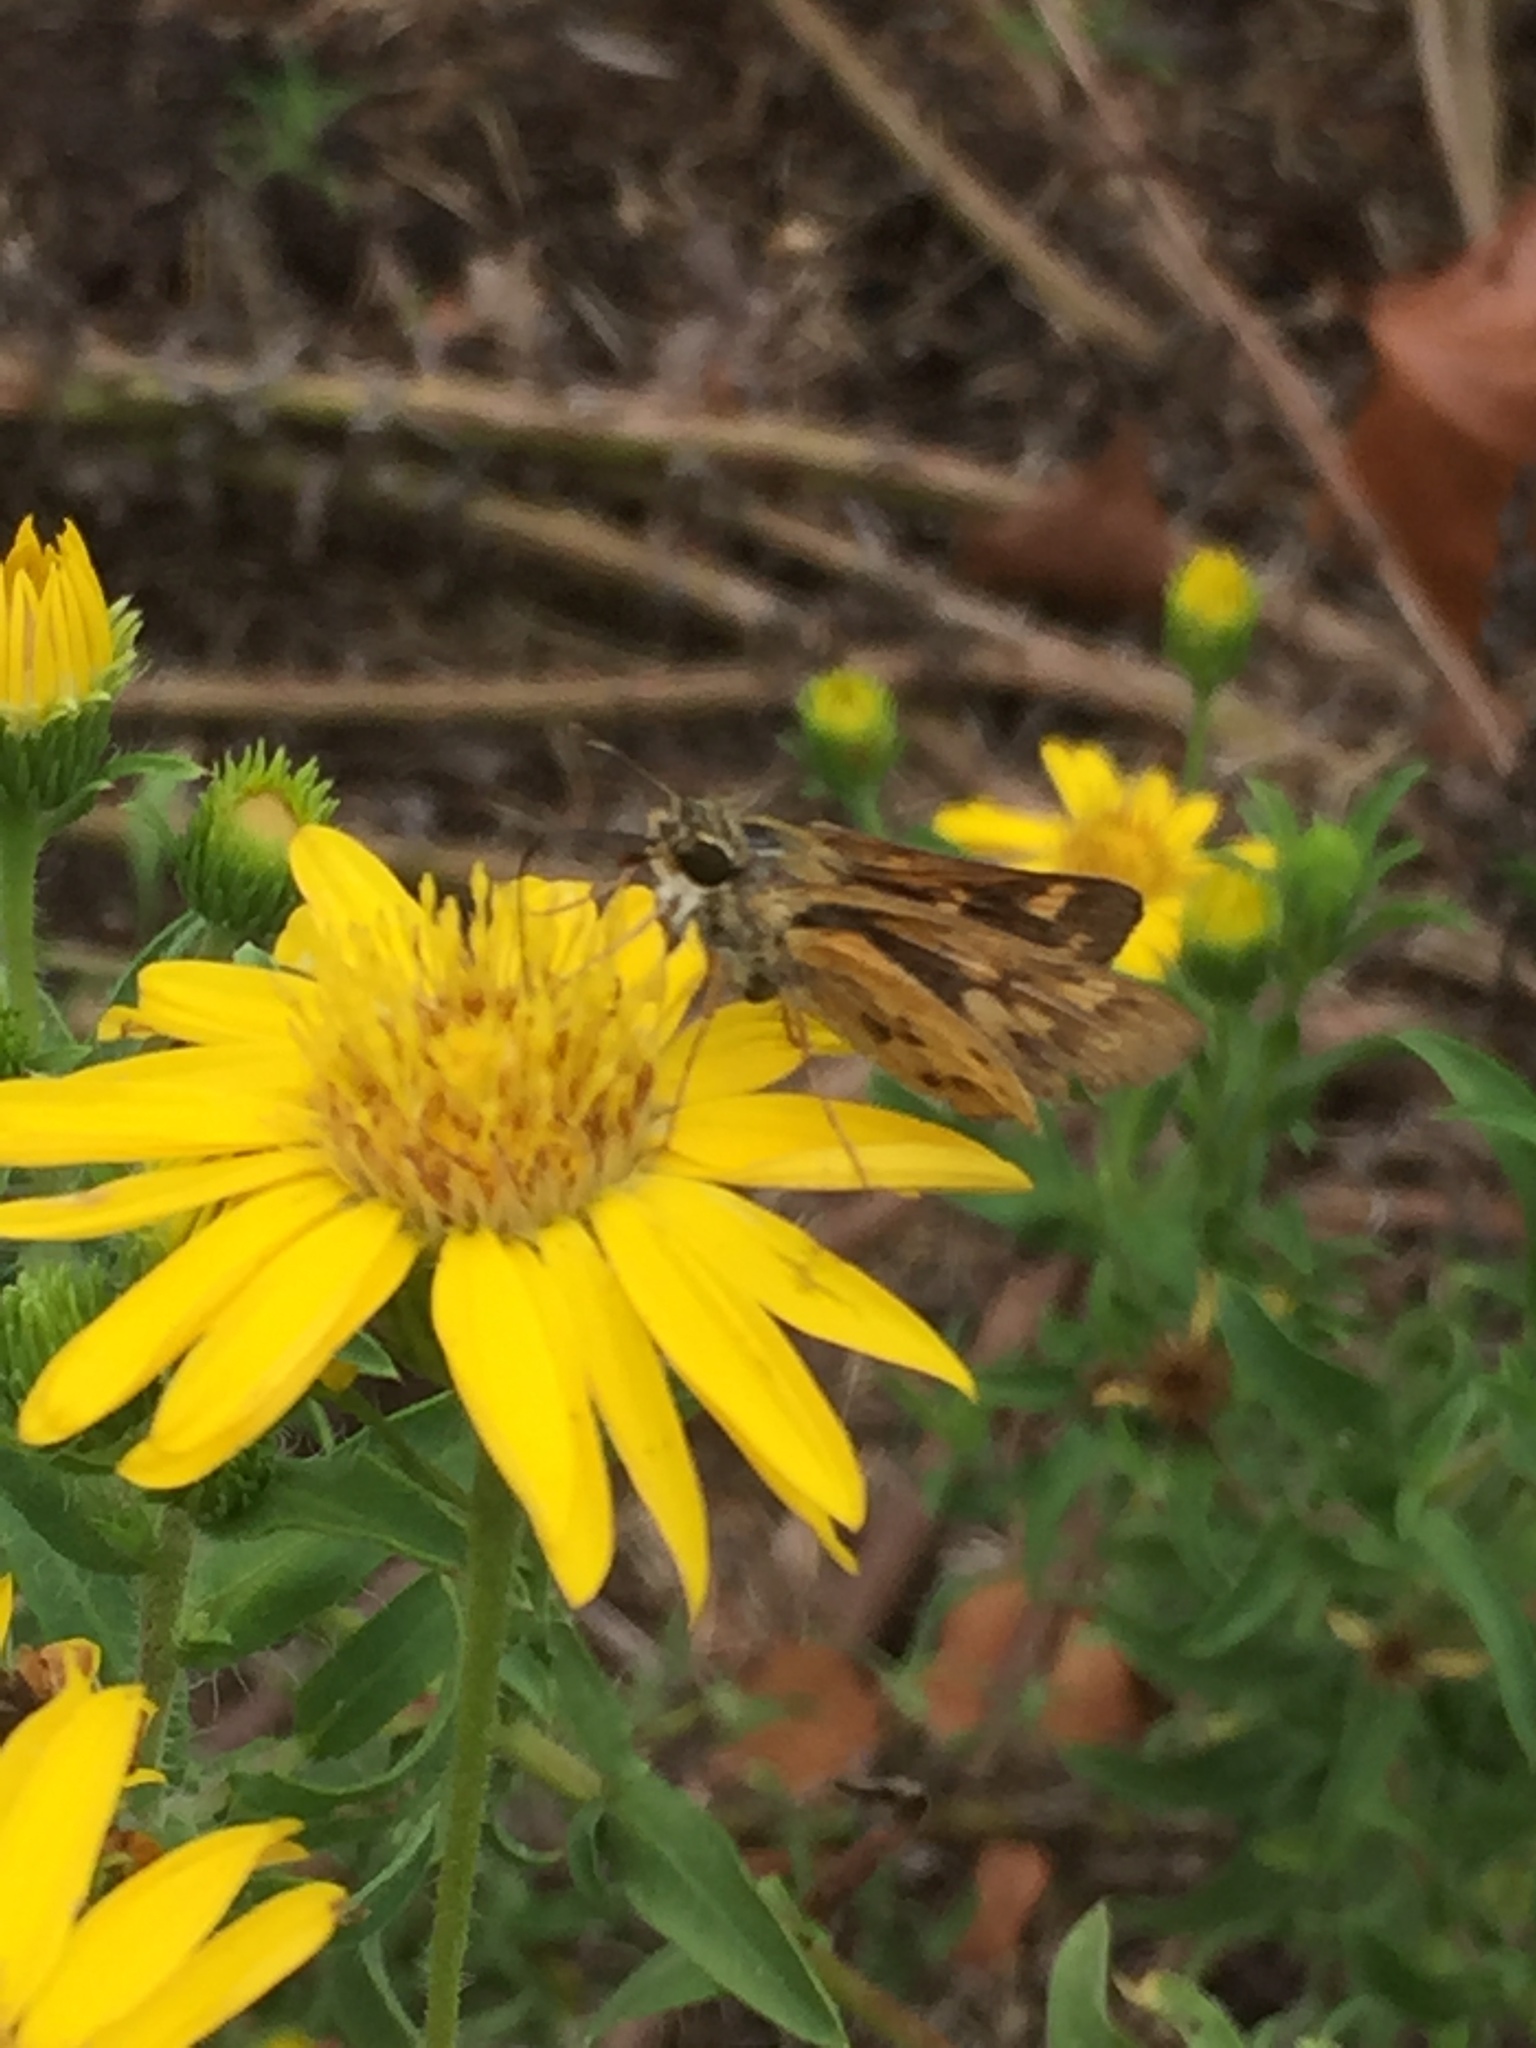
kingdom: Animalia
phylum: Arthropoda
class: Insecta
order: Lepidoptera
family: Hesperiidae
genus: Hylephila
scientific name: Hylephila phyleus
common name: Fiery skipper
